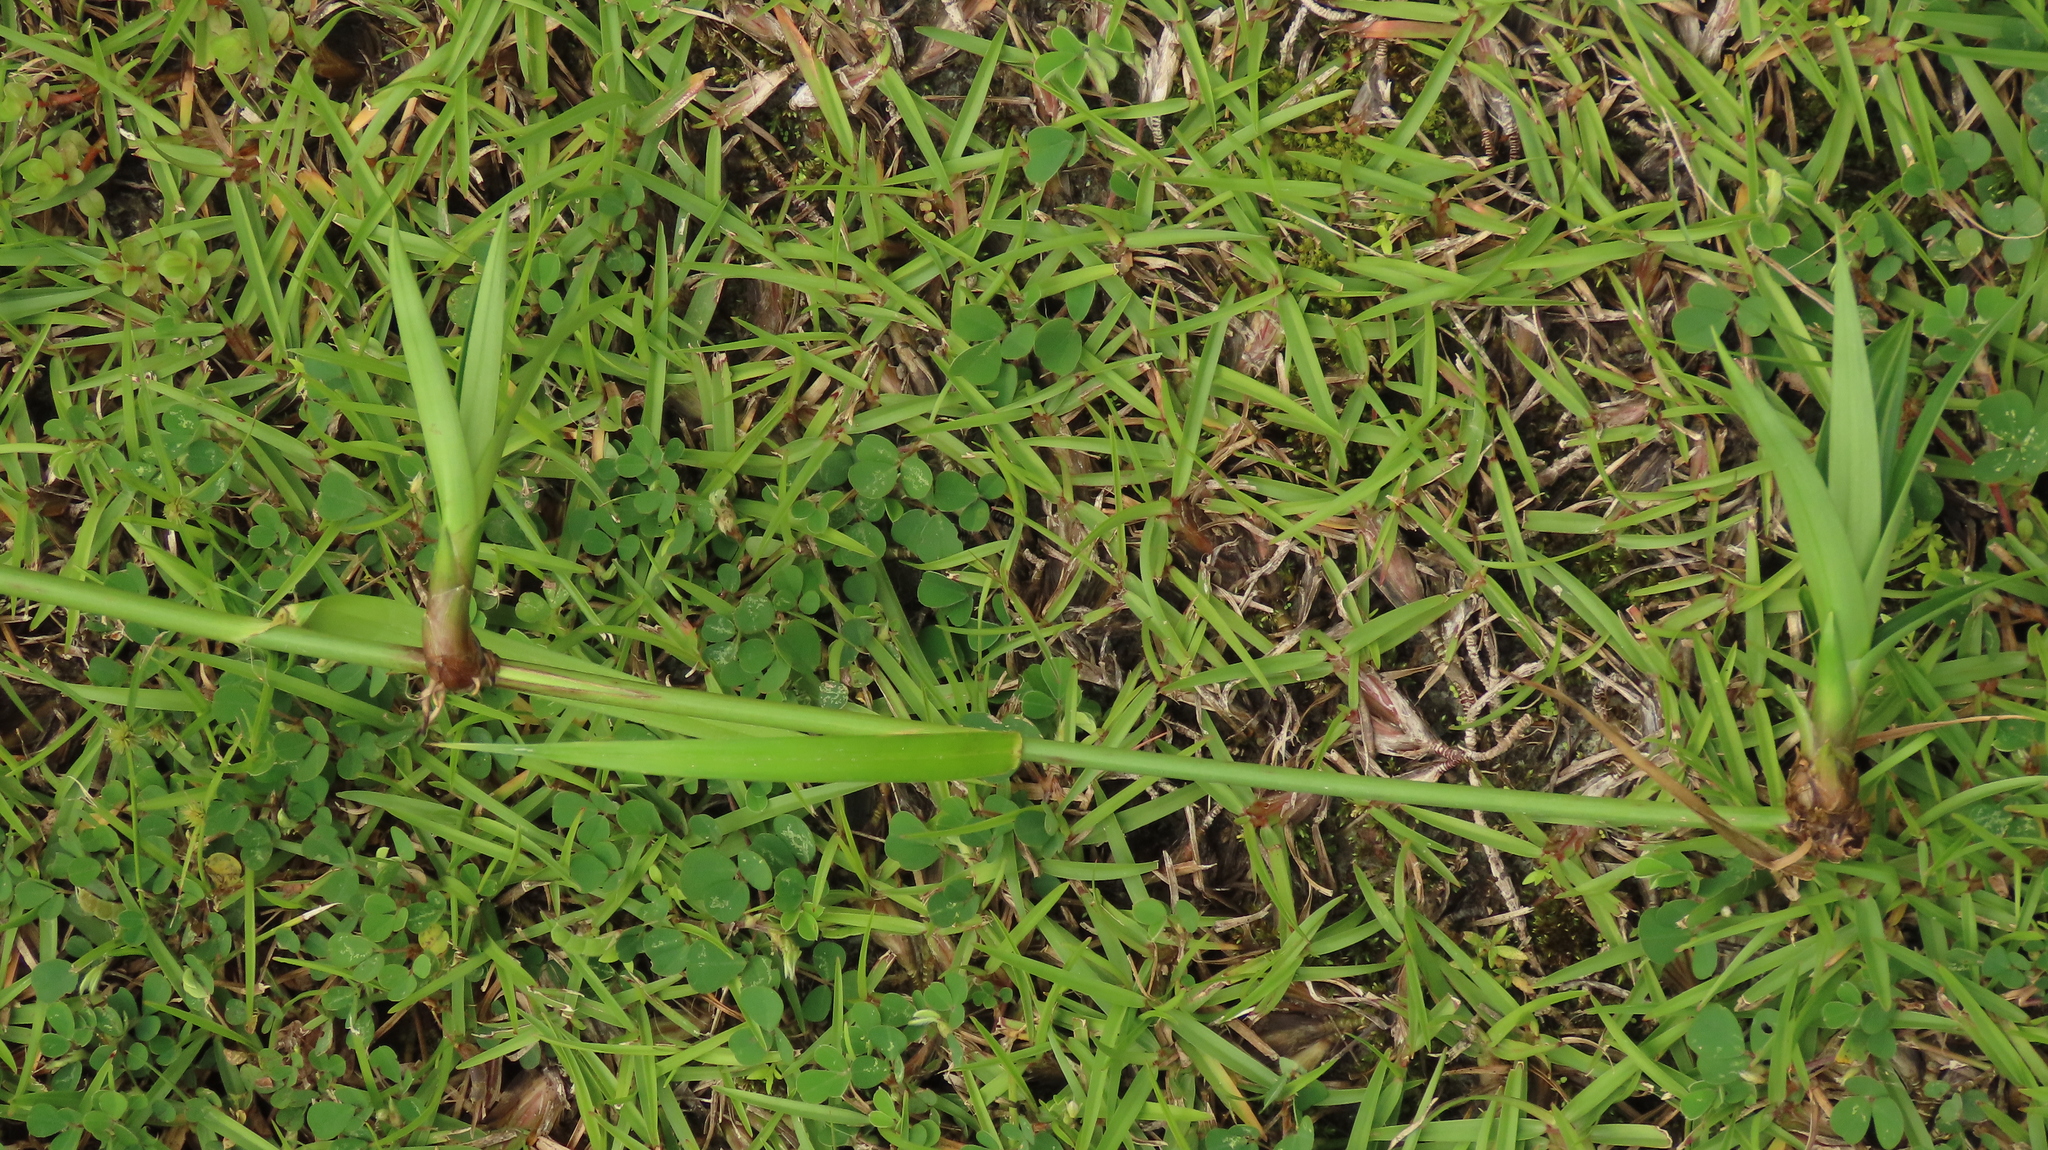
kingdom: Plantae
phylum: Tracheophyta
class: Liliopsida
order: Poales
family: Cyperaceae
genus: Scirpus
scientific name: Scirpus ternatanus
